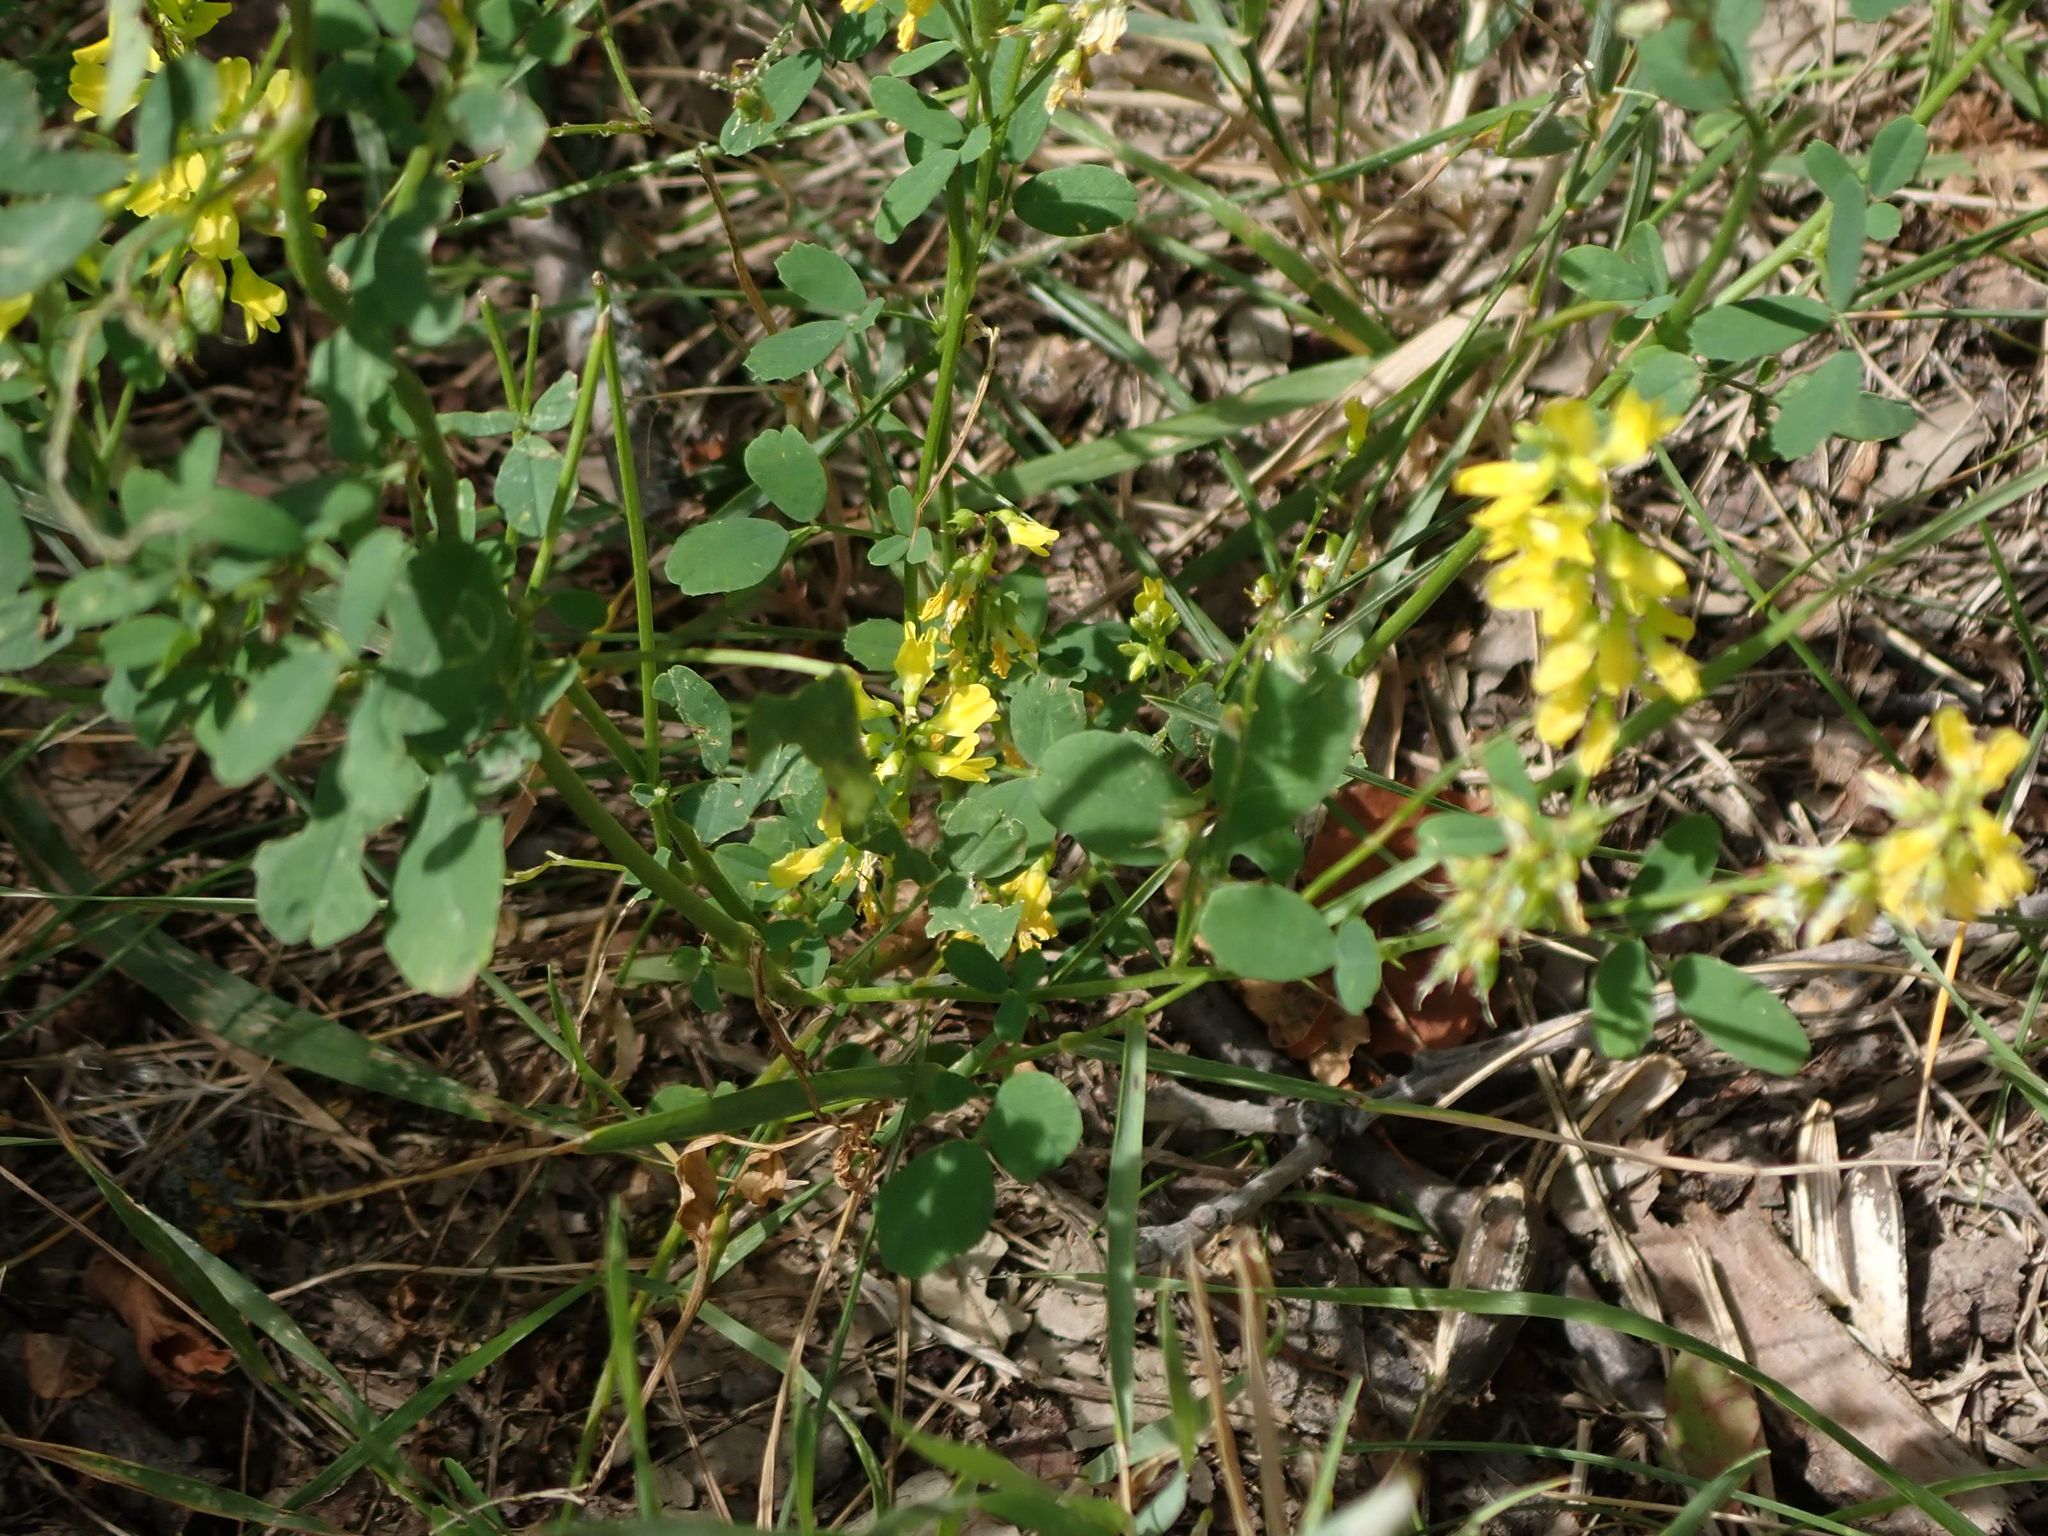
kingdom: Plantae
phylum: Tracheophyta
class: Magnoliopsida
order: Fabales
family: Fabaceae
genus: Melilotus
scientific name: Melilotus officinalis
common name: Sweetclover
